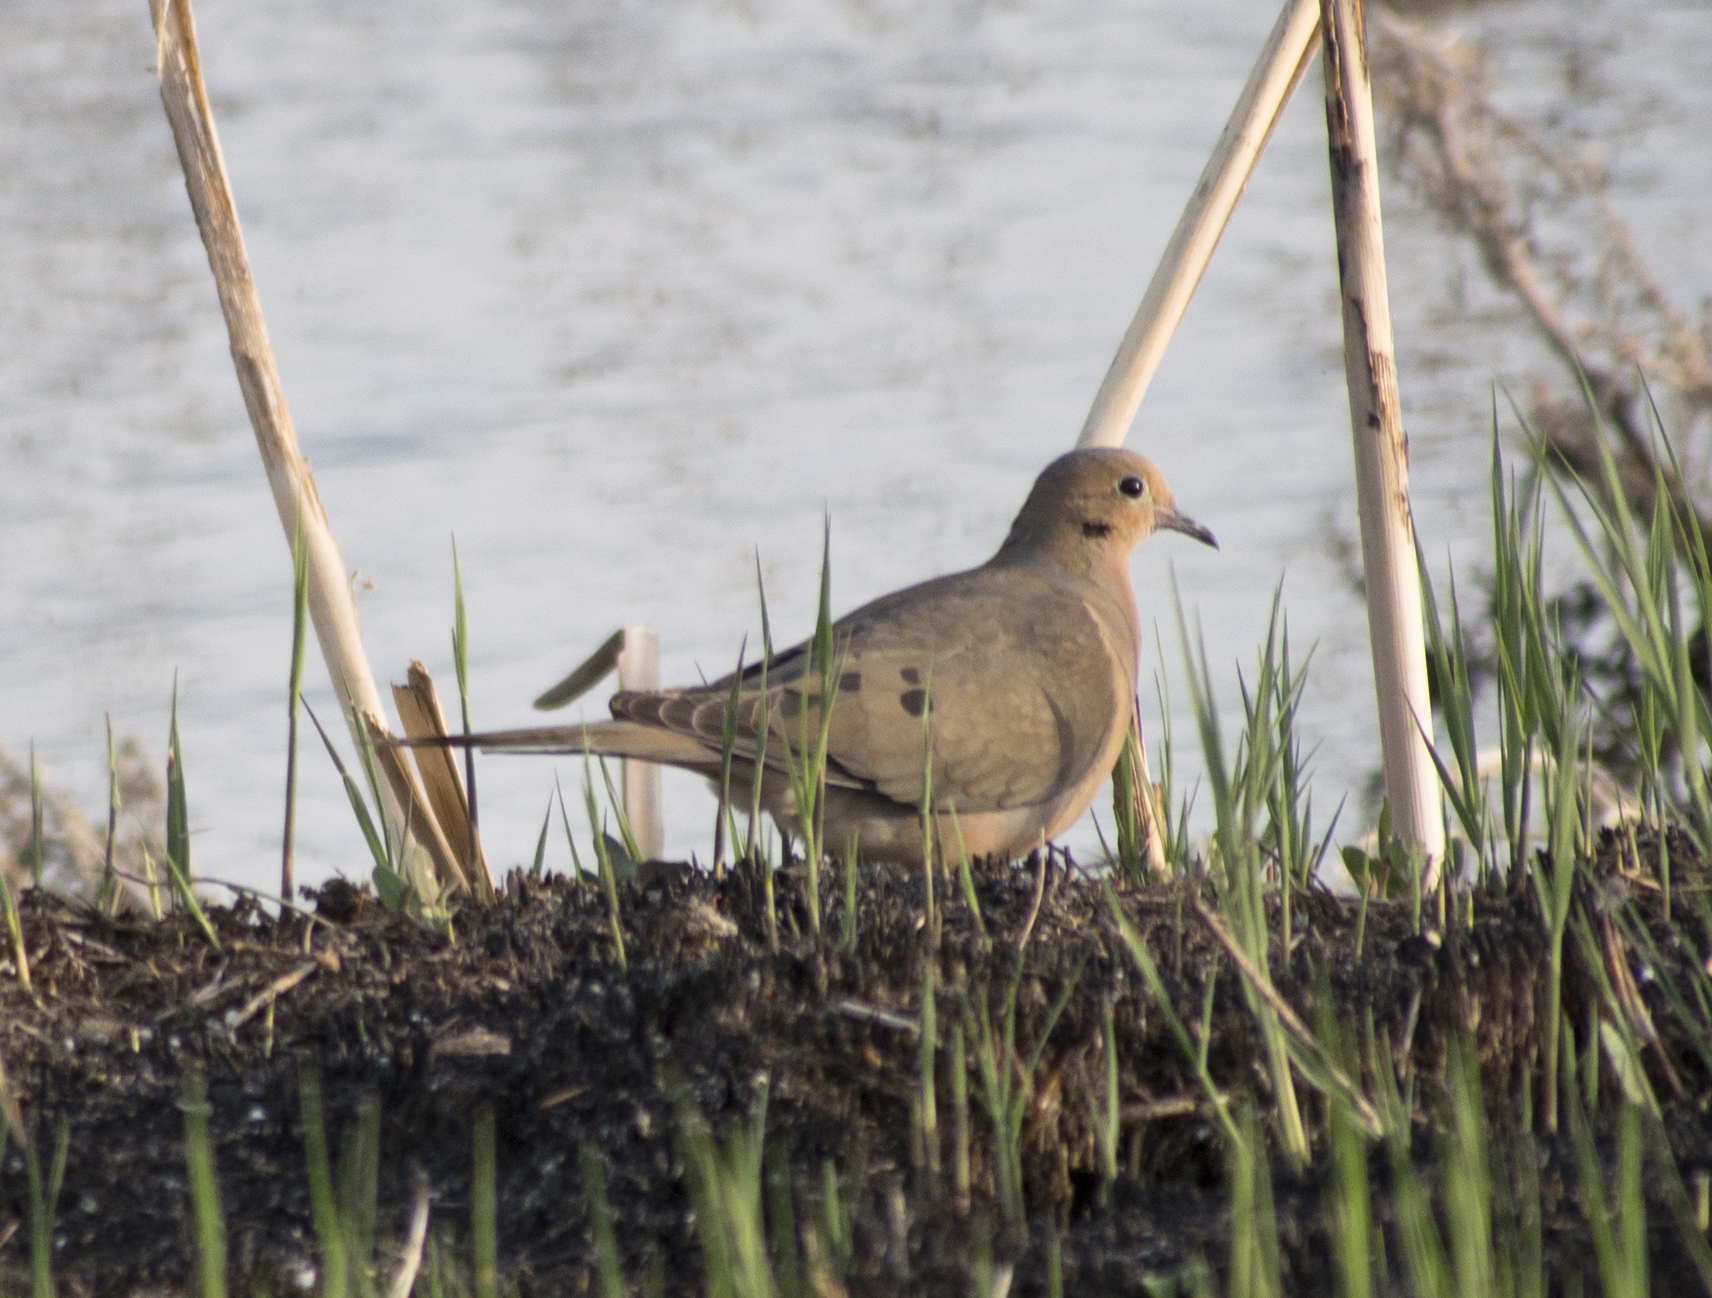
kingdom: Animalia
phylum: Chordata
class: Aves
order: Columbiformes
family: Columbidae
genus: Zenaida
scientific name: Zenaida macroura
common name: Mourning dove
